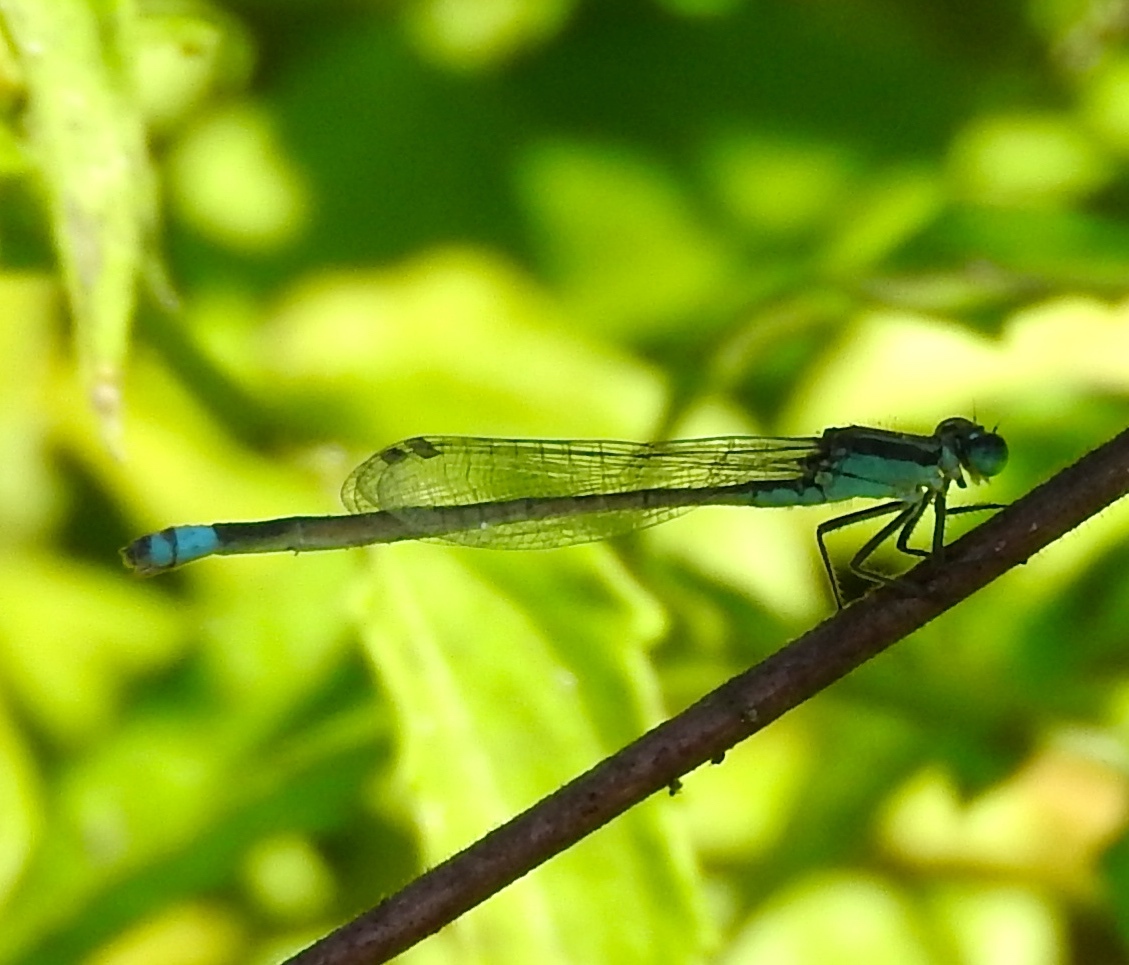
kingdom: Animalia
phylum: Arthropoda
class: Insecta
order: Odonata
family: Coenagrionidae
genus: Ischnura
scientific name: Ischnura
